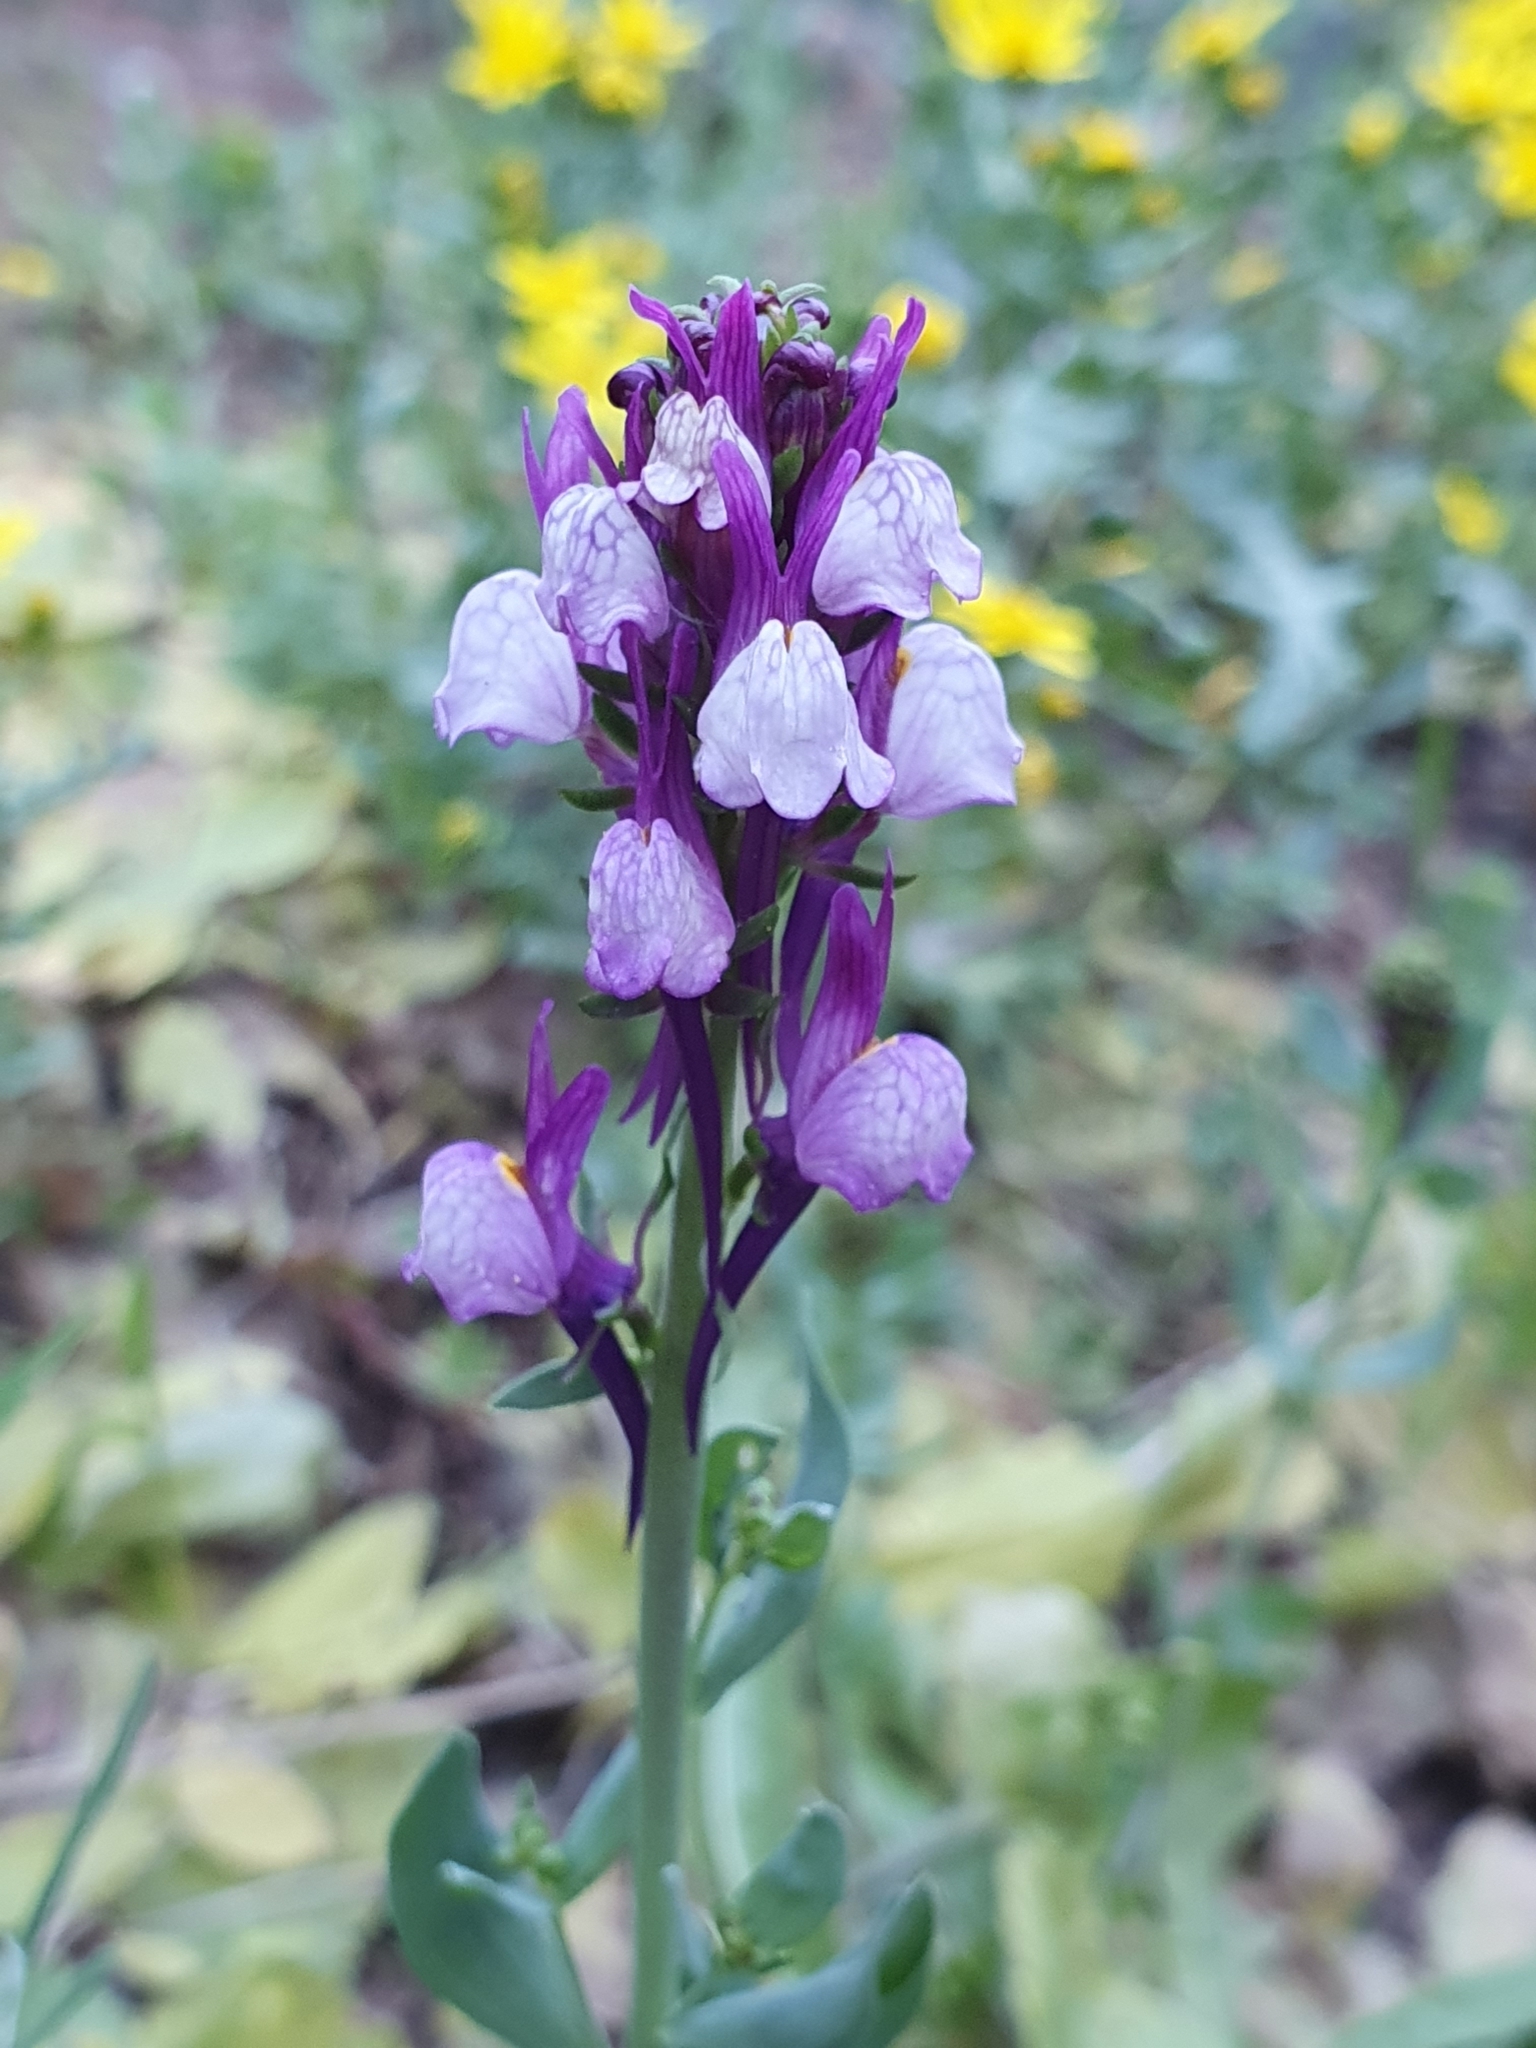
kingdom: Plantae
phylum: Tracheophyta
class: Magnoliopsida
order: Lamiales
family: Plantaginaceae
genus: Linaria
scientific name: Linaria virgata
